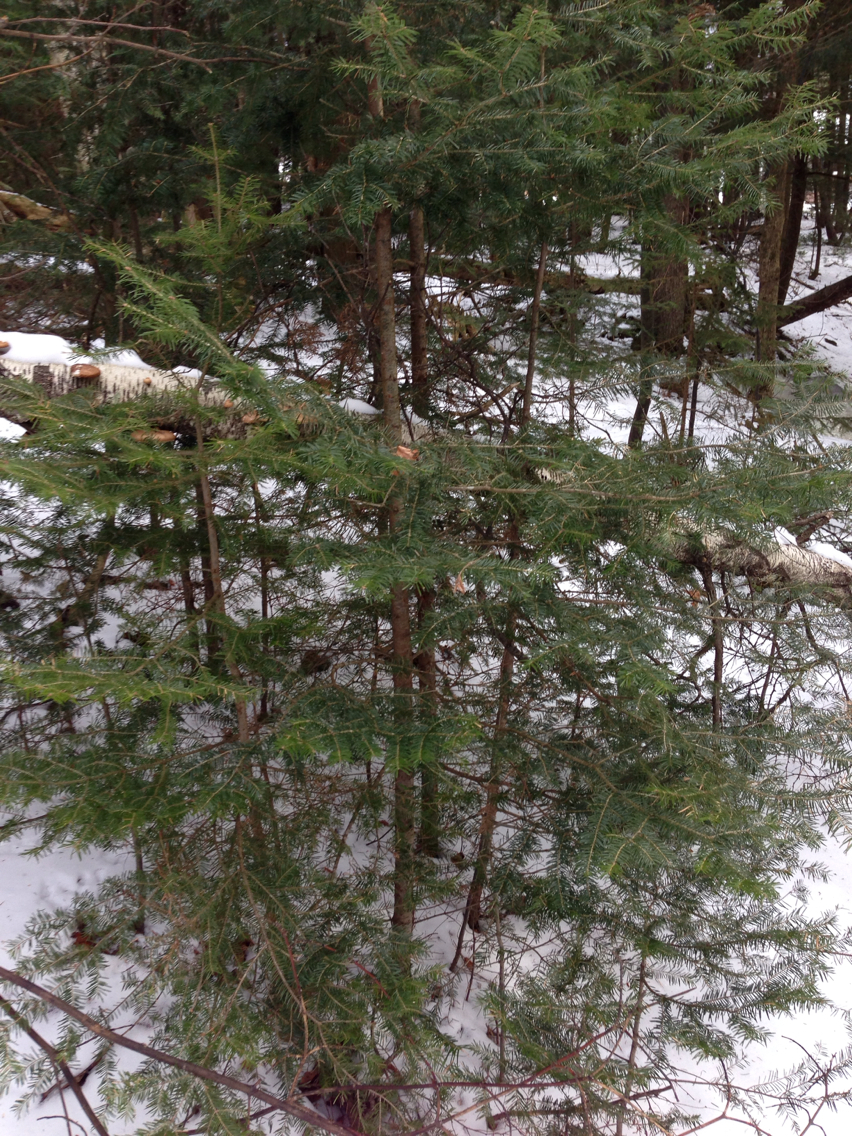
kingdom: Plantae
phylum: Tracheophyta
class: Pinopsida
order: Pinales
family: Pinaceae
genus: Abies
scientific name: Abies balsamea
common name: Balsam fir
